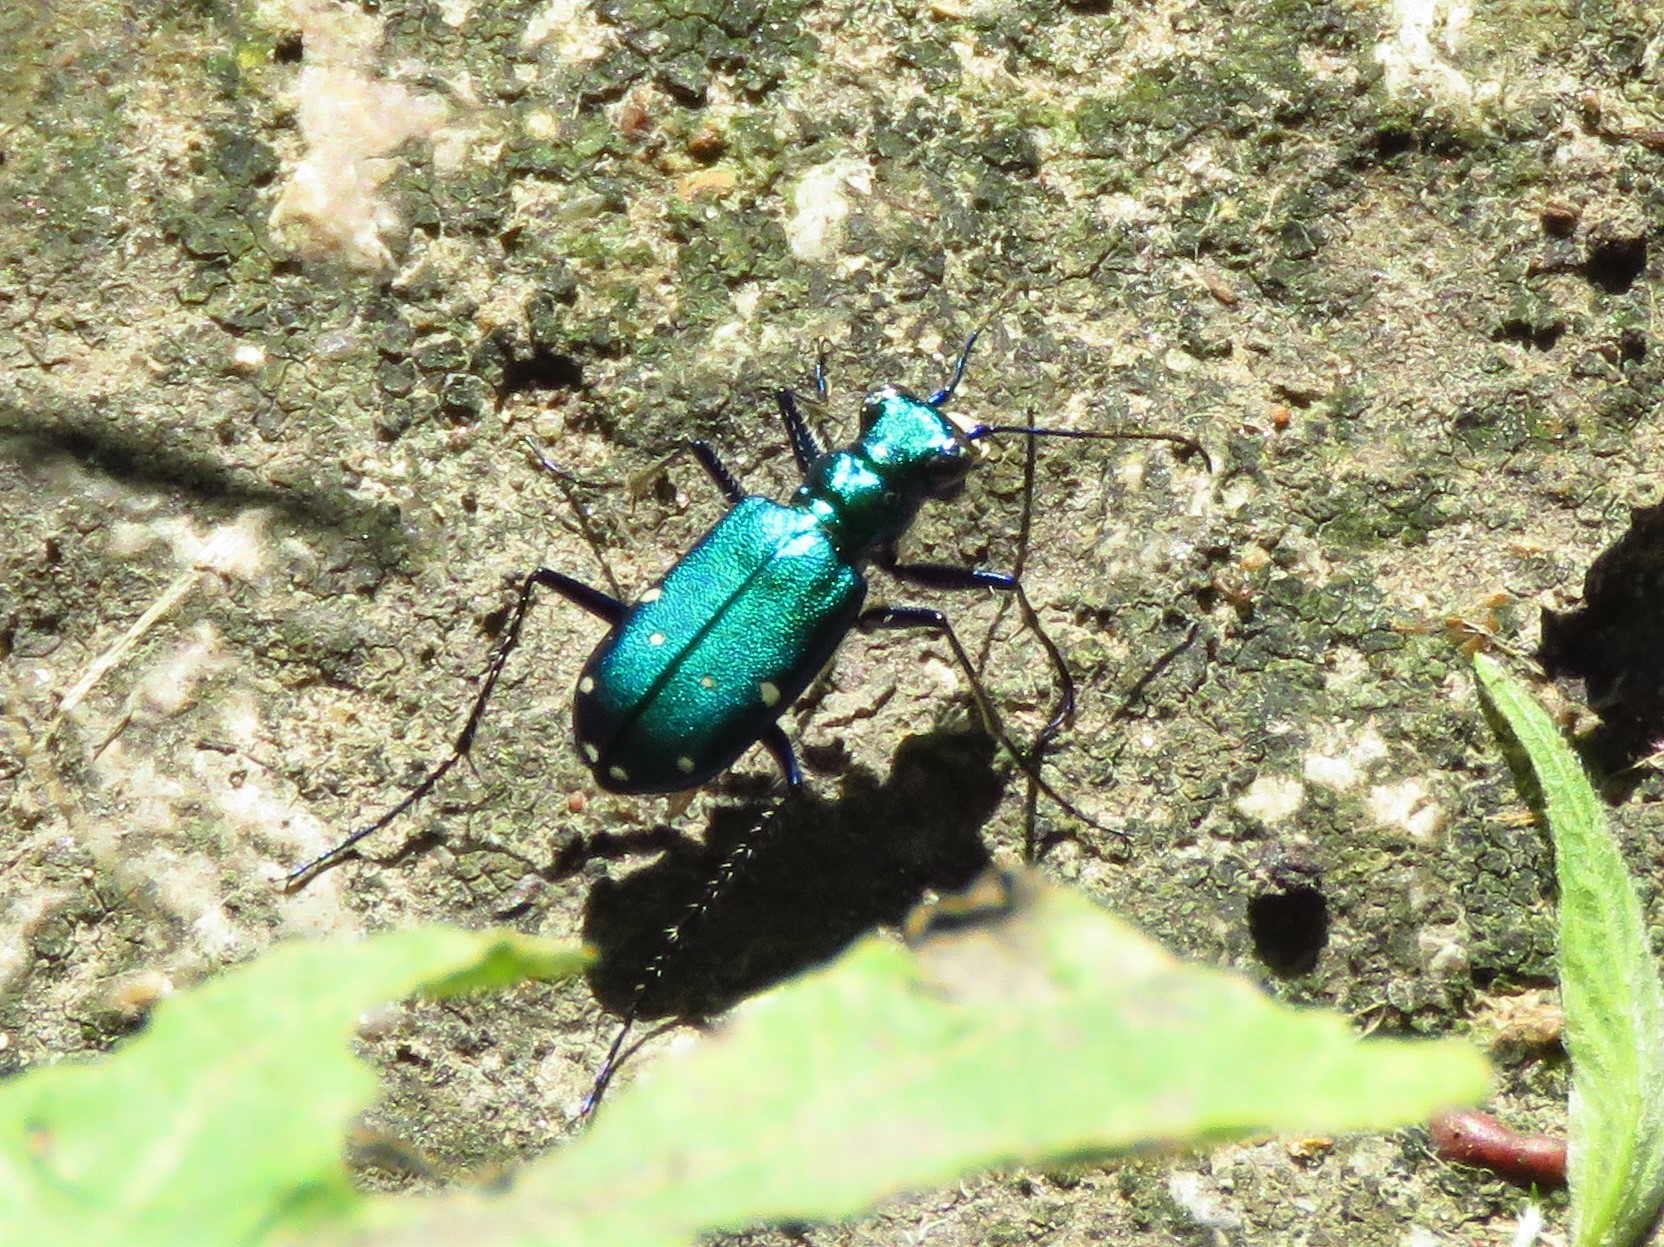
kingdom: Animalia
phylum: Arthropoda
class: Insecta
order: Coleoptera
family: Carabidae
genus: Cicindela
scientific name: Cicindela sexguttata
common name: Six-spotted tiger beetle
